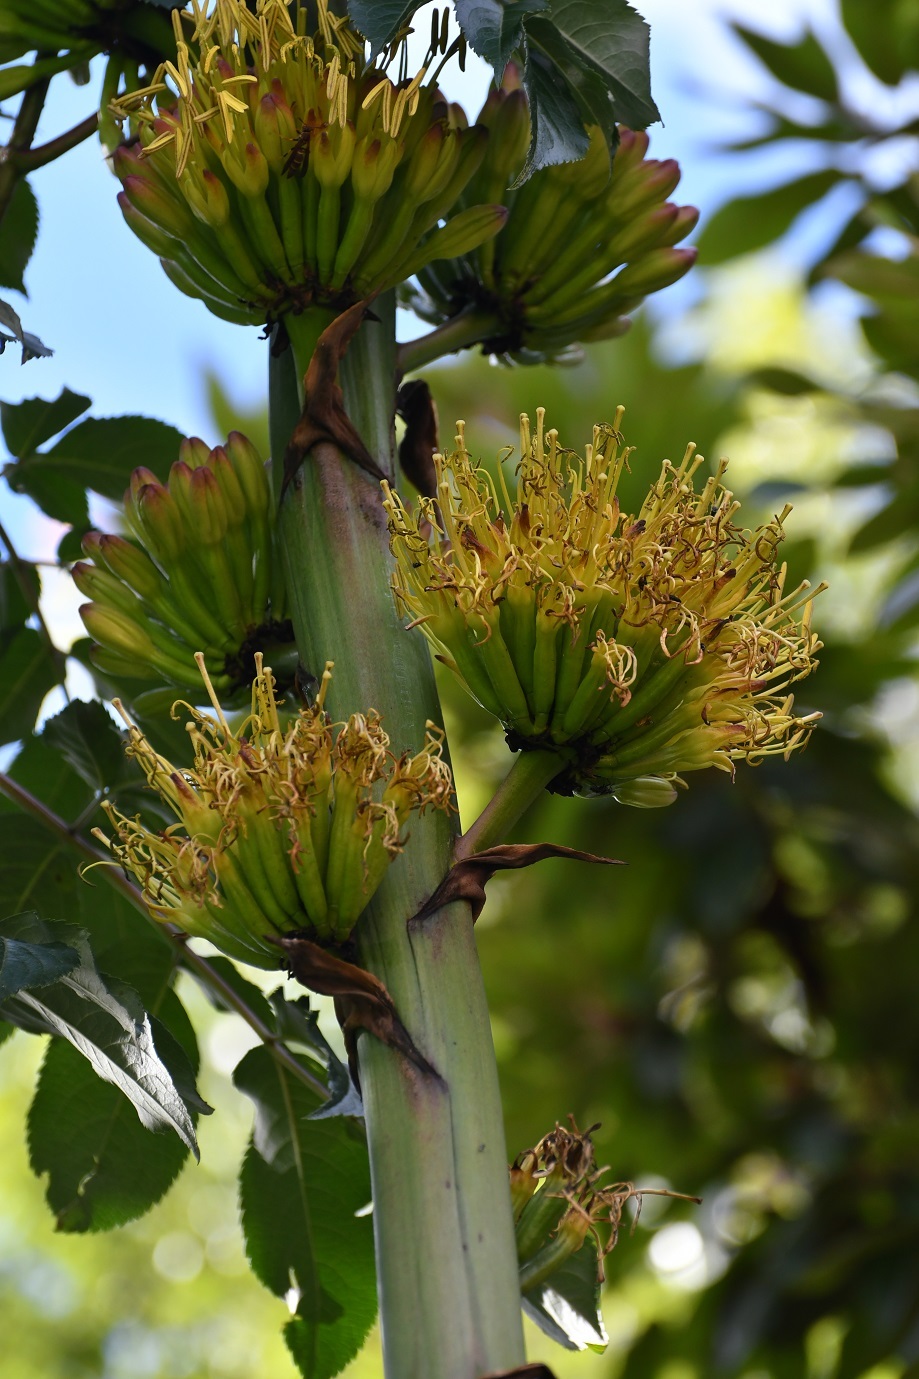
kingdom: Plantae
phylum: Tracheophyta
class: Liliopsida
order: Asparagales
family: Asparagaceae
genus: Agave
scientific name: Agave congesta
